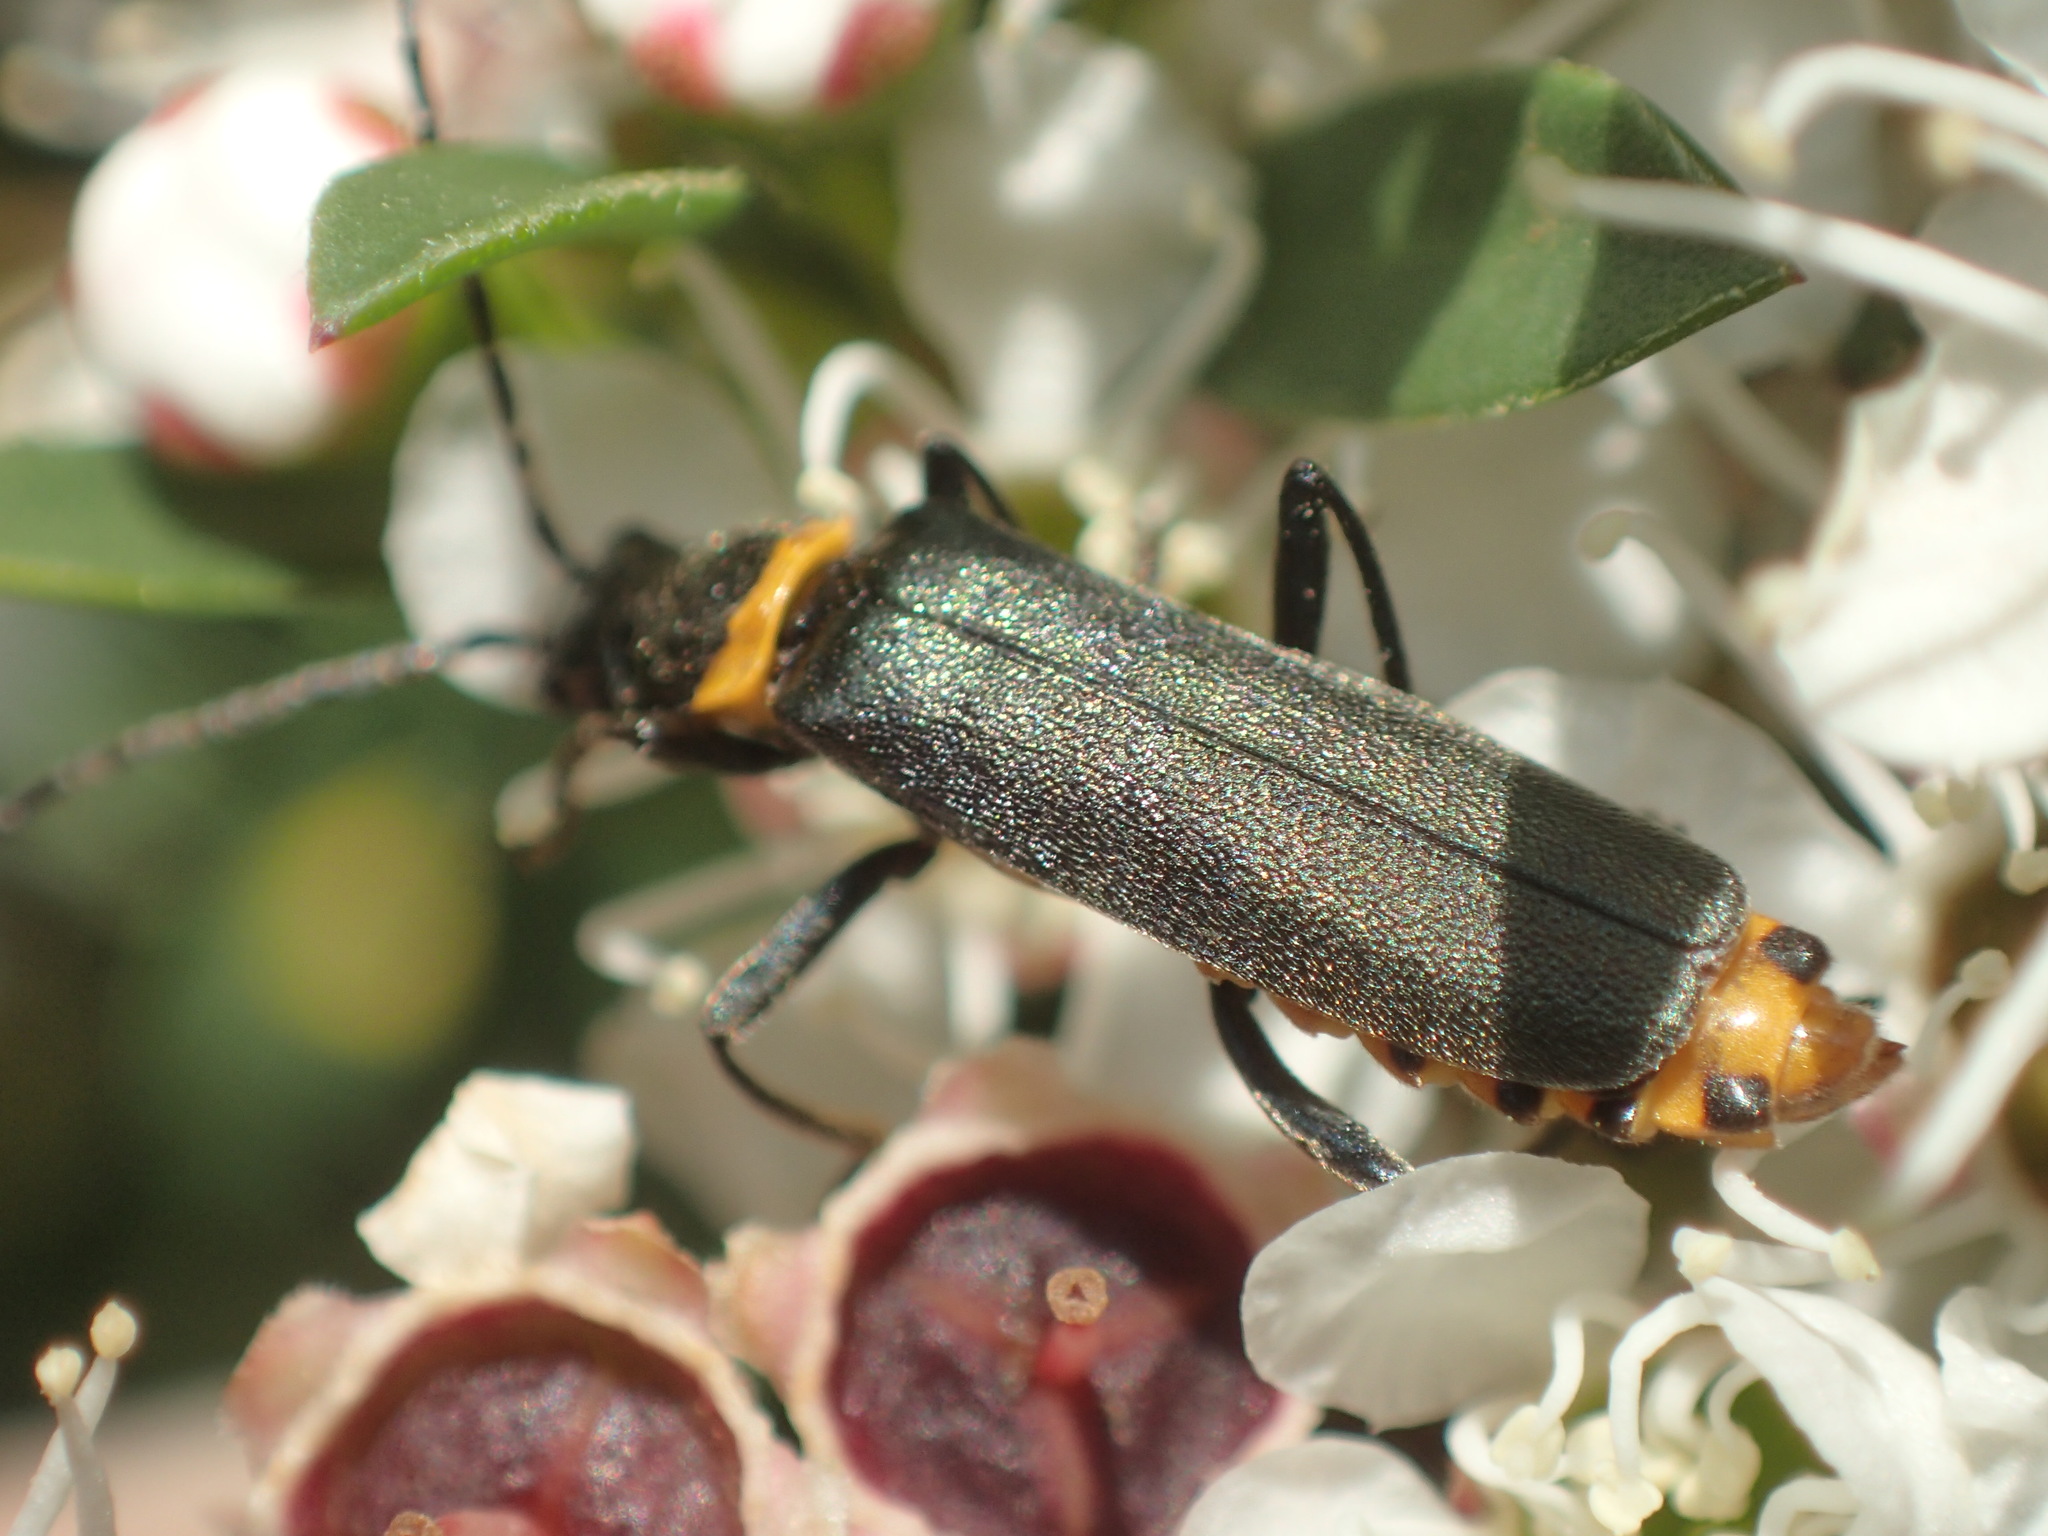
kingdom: Animalia
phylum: Arthropoda
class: Insecta
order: Coleoptera
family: Cantharidae
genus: Chauliognathus
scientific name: Chauliognathus
